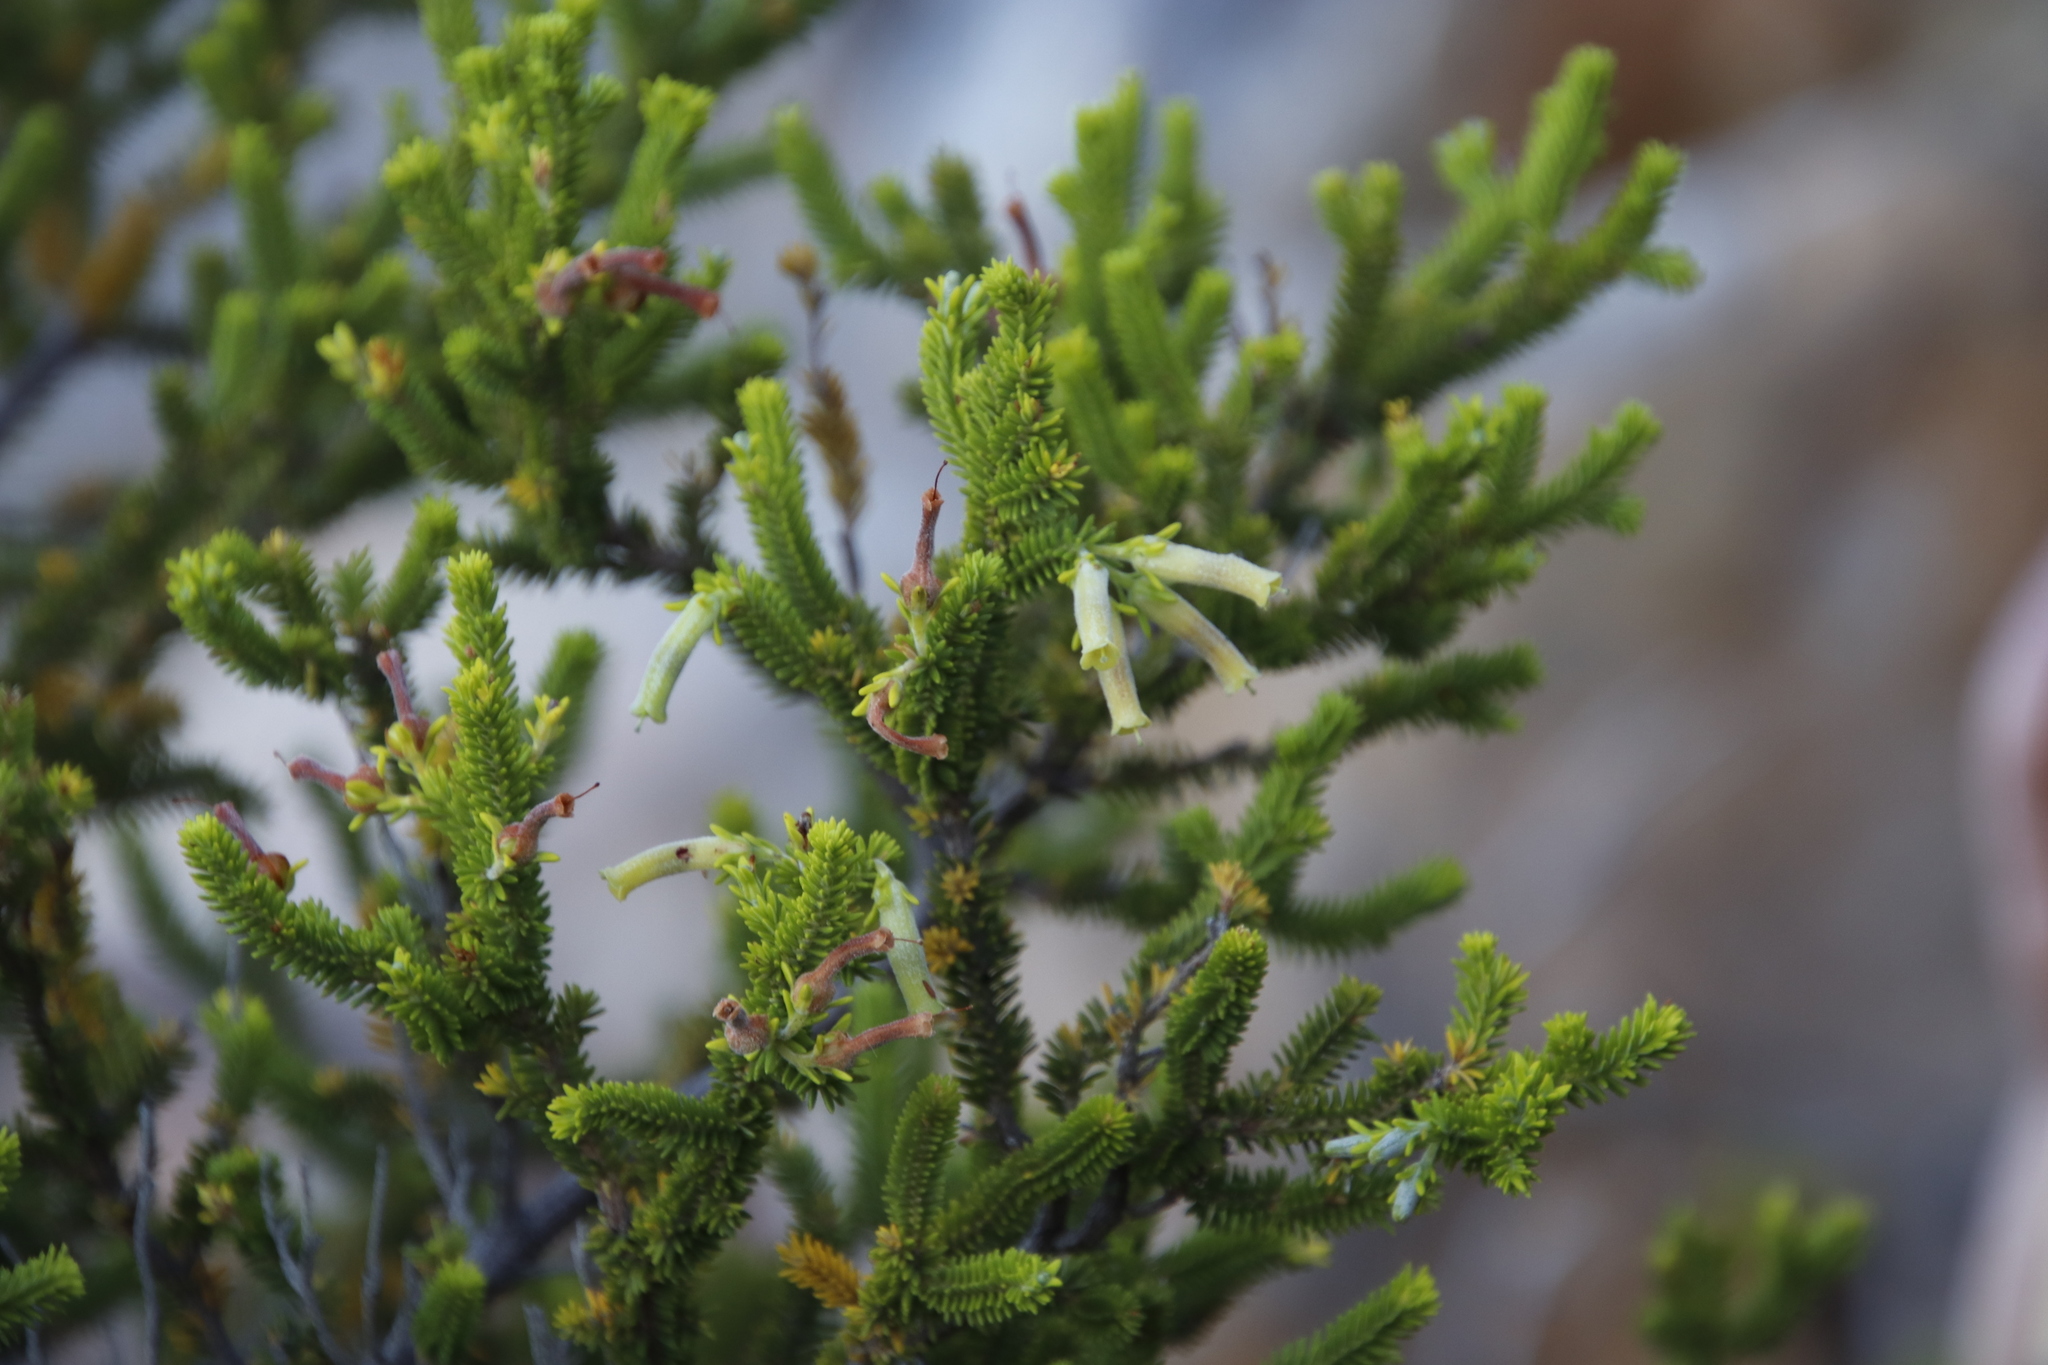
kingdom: Plantae
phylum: Tracheophyta
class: Magnoliopsida
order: Ericales
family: Ericaceae
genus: Erica
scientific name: Erica brachialis
